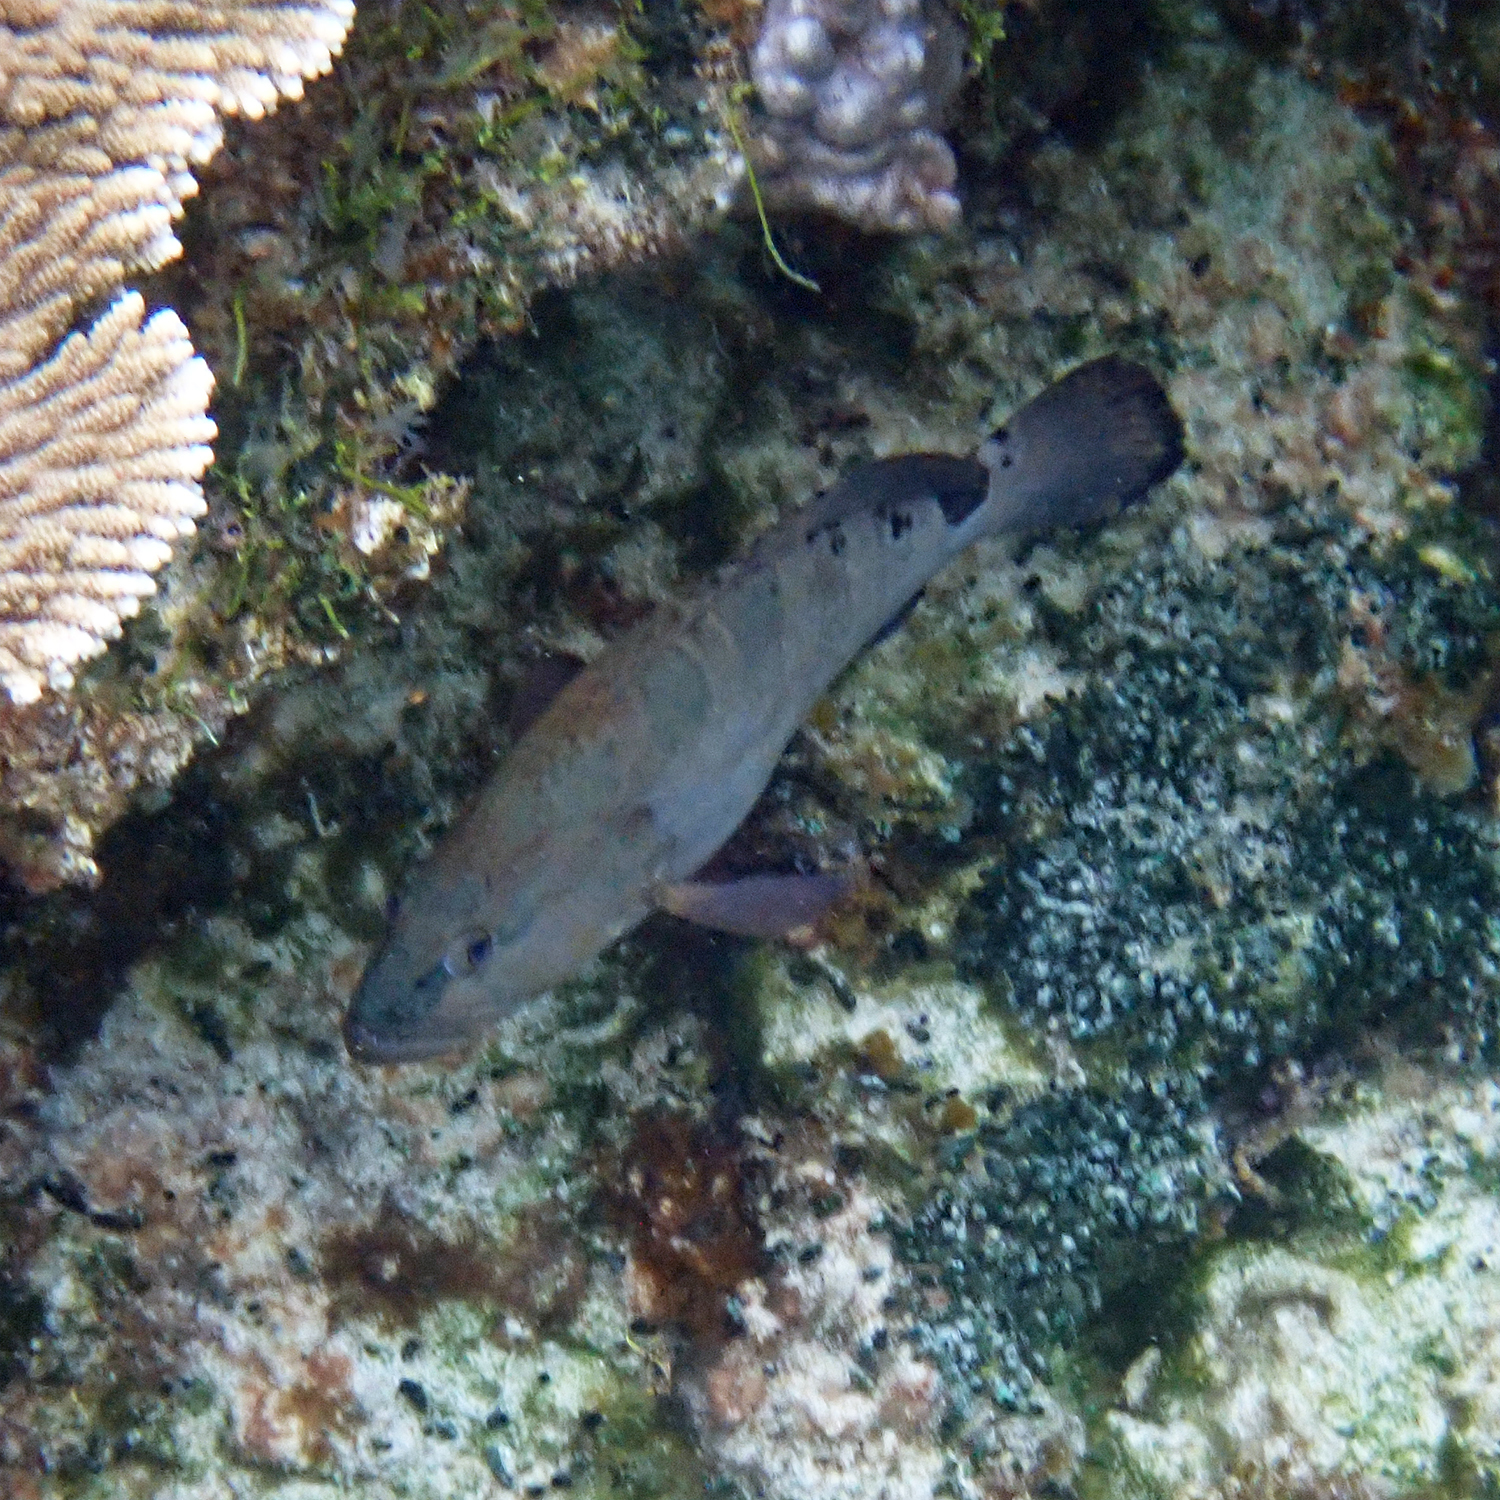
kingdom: Animalia
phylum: Chordata
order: Perciformes
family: Serranidae
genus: Epinephelus
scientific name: Epinephelus daemelii
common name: Saddletail grouper
